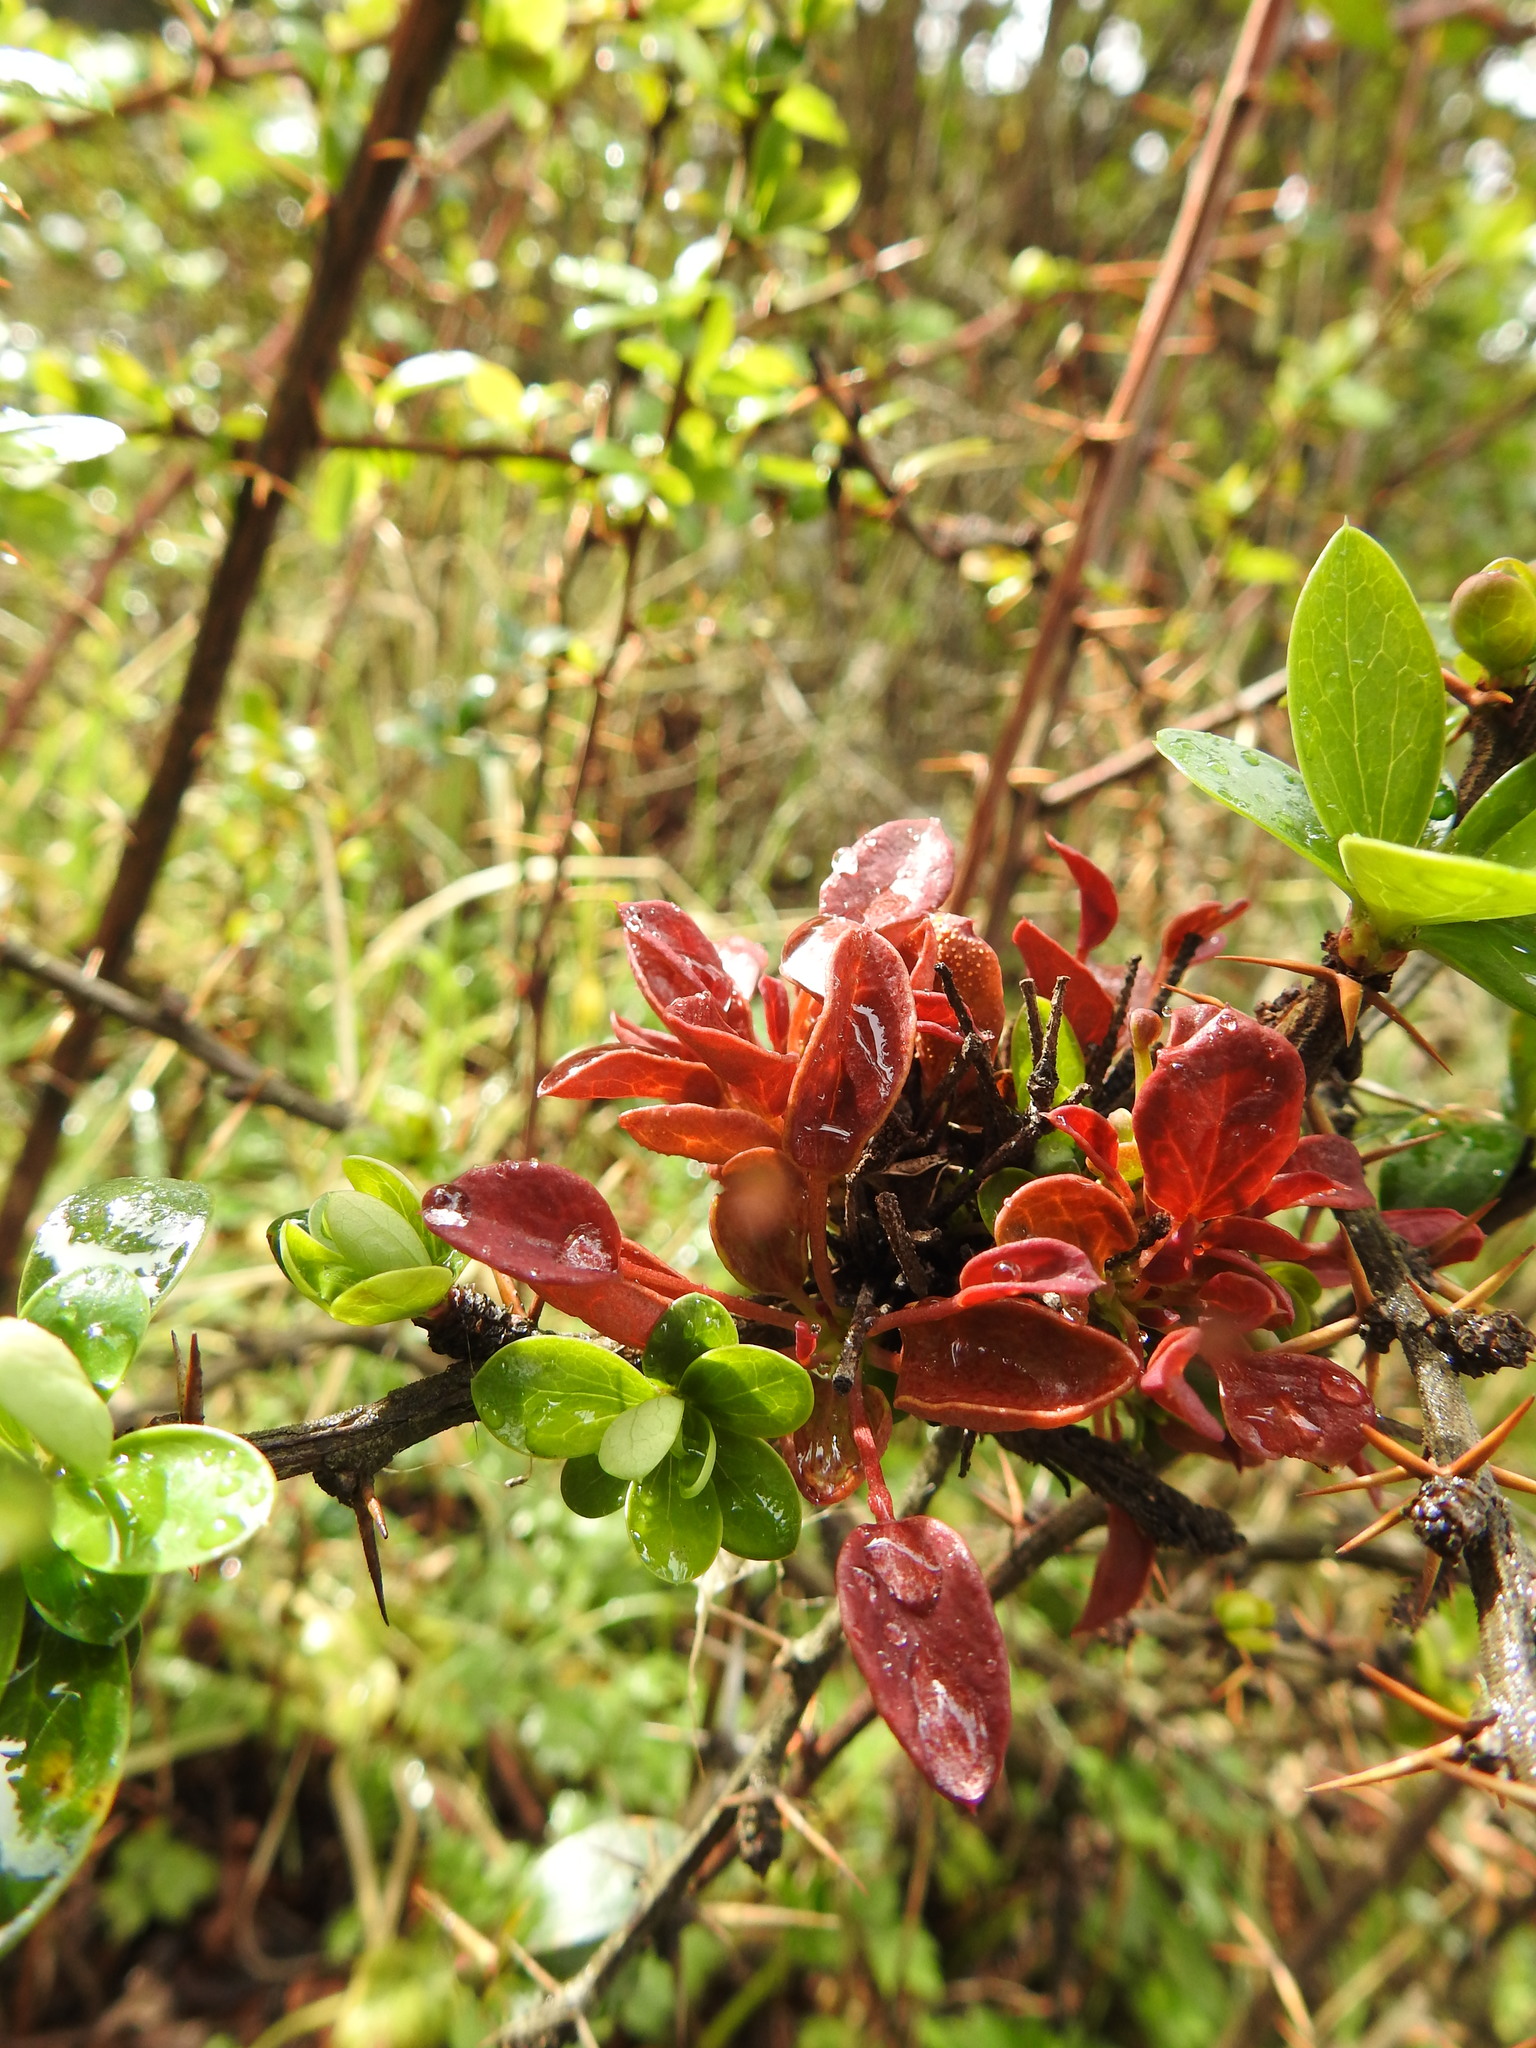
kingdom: Fungi
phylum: Basidiomycota
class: Pucciniomycetes
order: Pucciniales
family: Pucciniaceae
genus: Puccinia
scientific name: Puccinia magellanica
